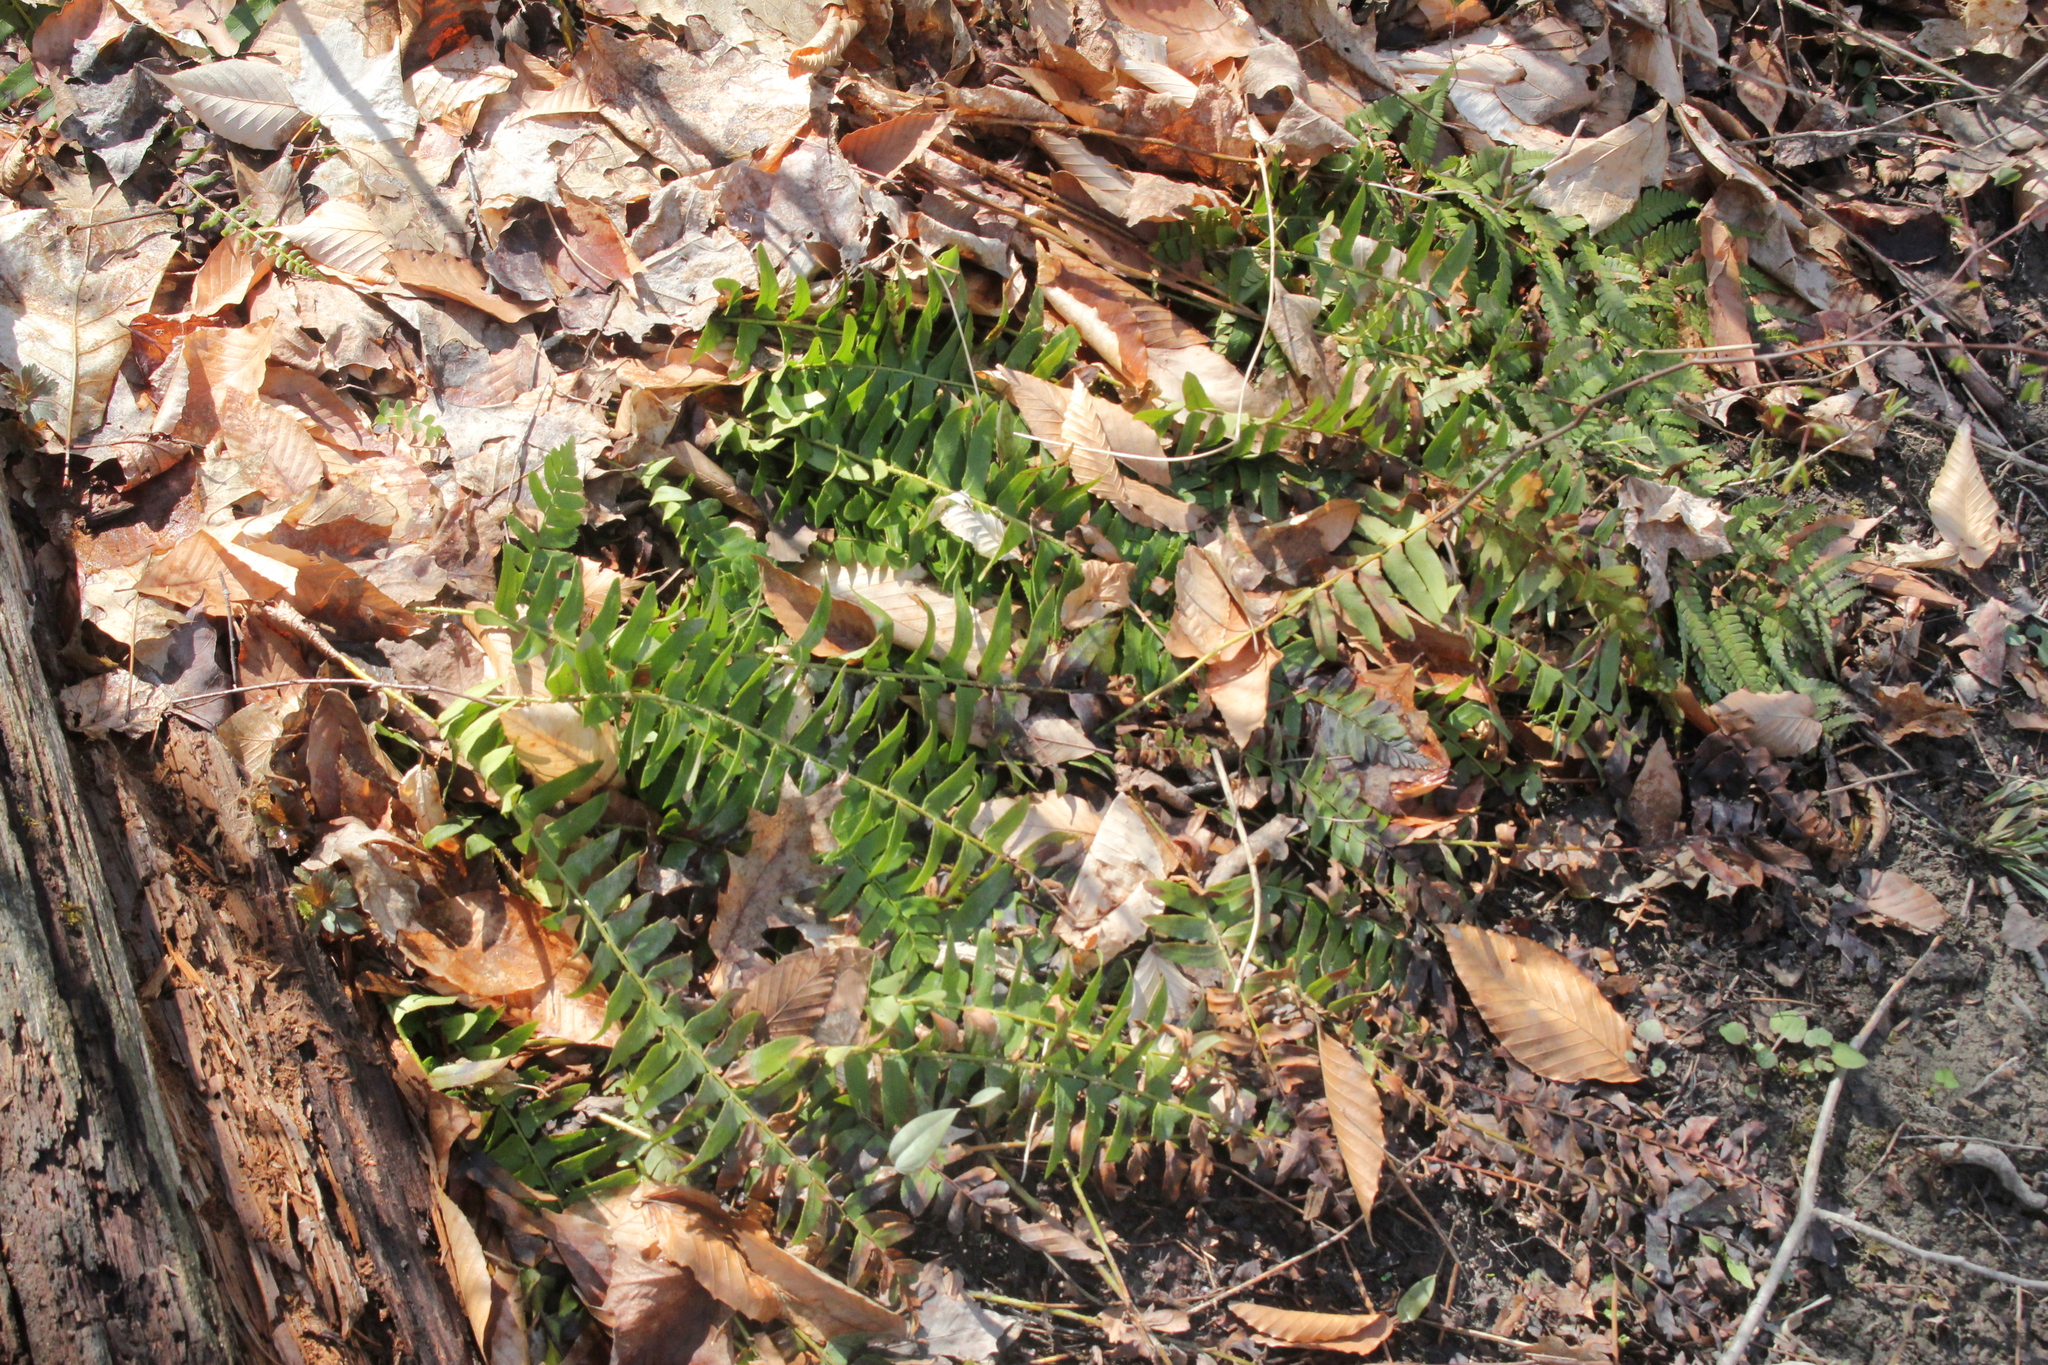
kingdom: Plantae
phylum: Tracheophyta
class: Polypodiopsida
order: Polypodiales
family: Dryopteridaceae
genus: Polystichum
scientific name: Polystichum acrostichoides
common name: Christmas fern
